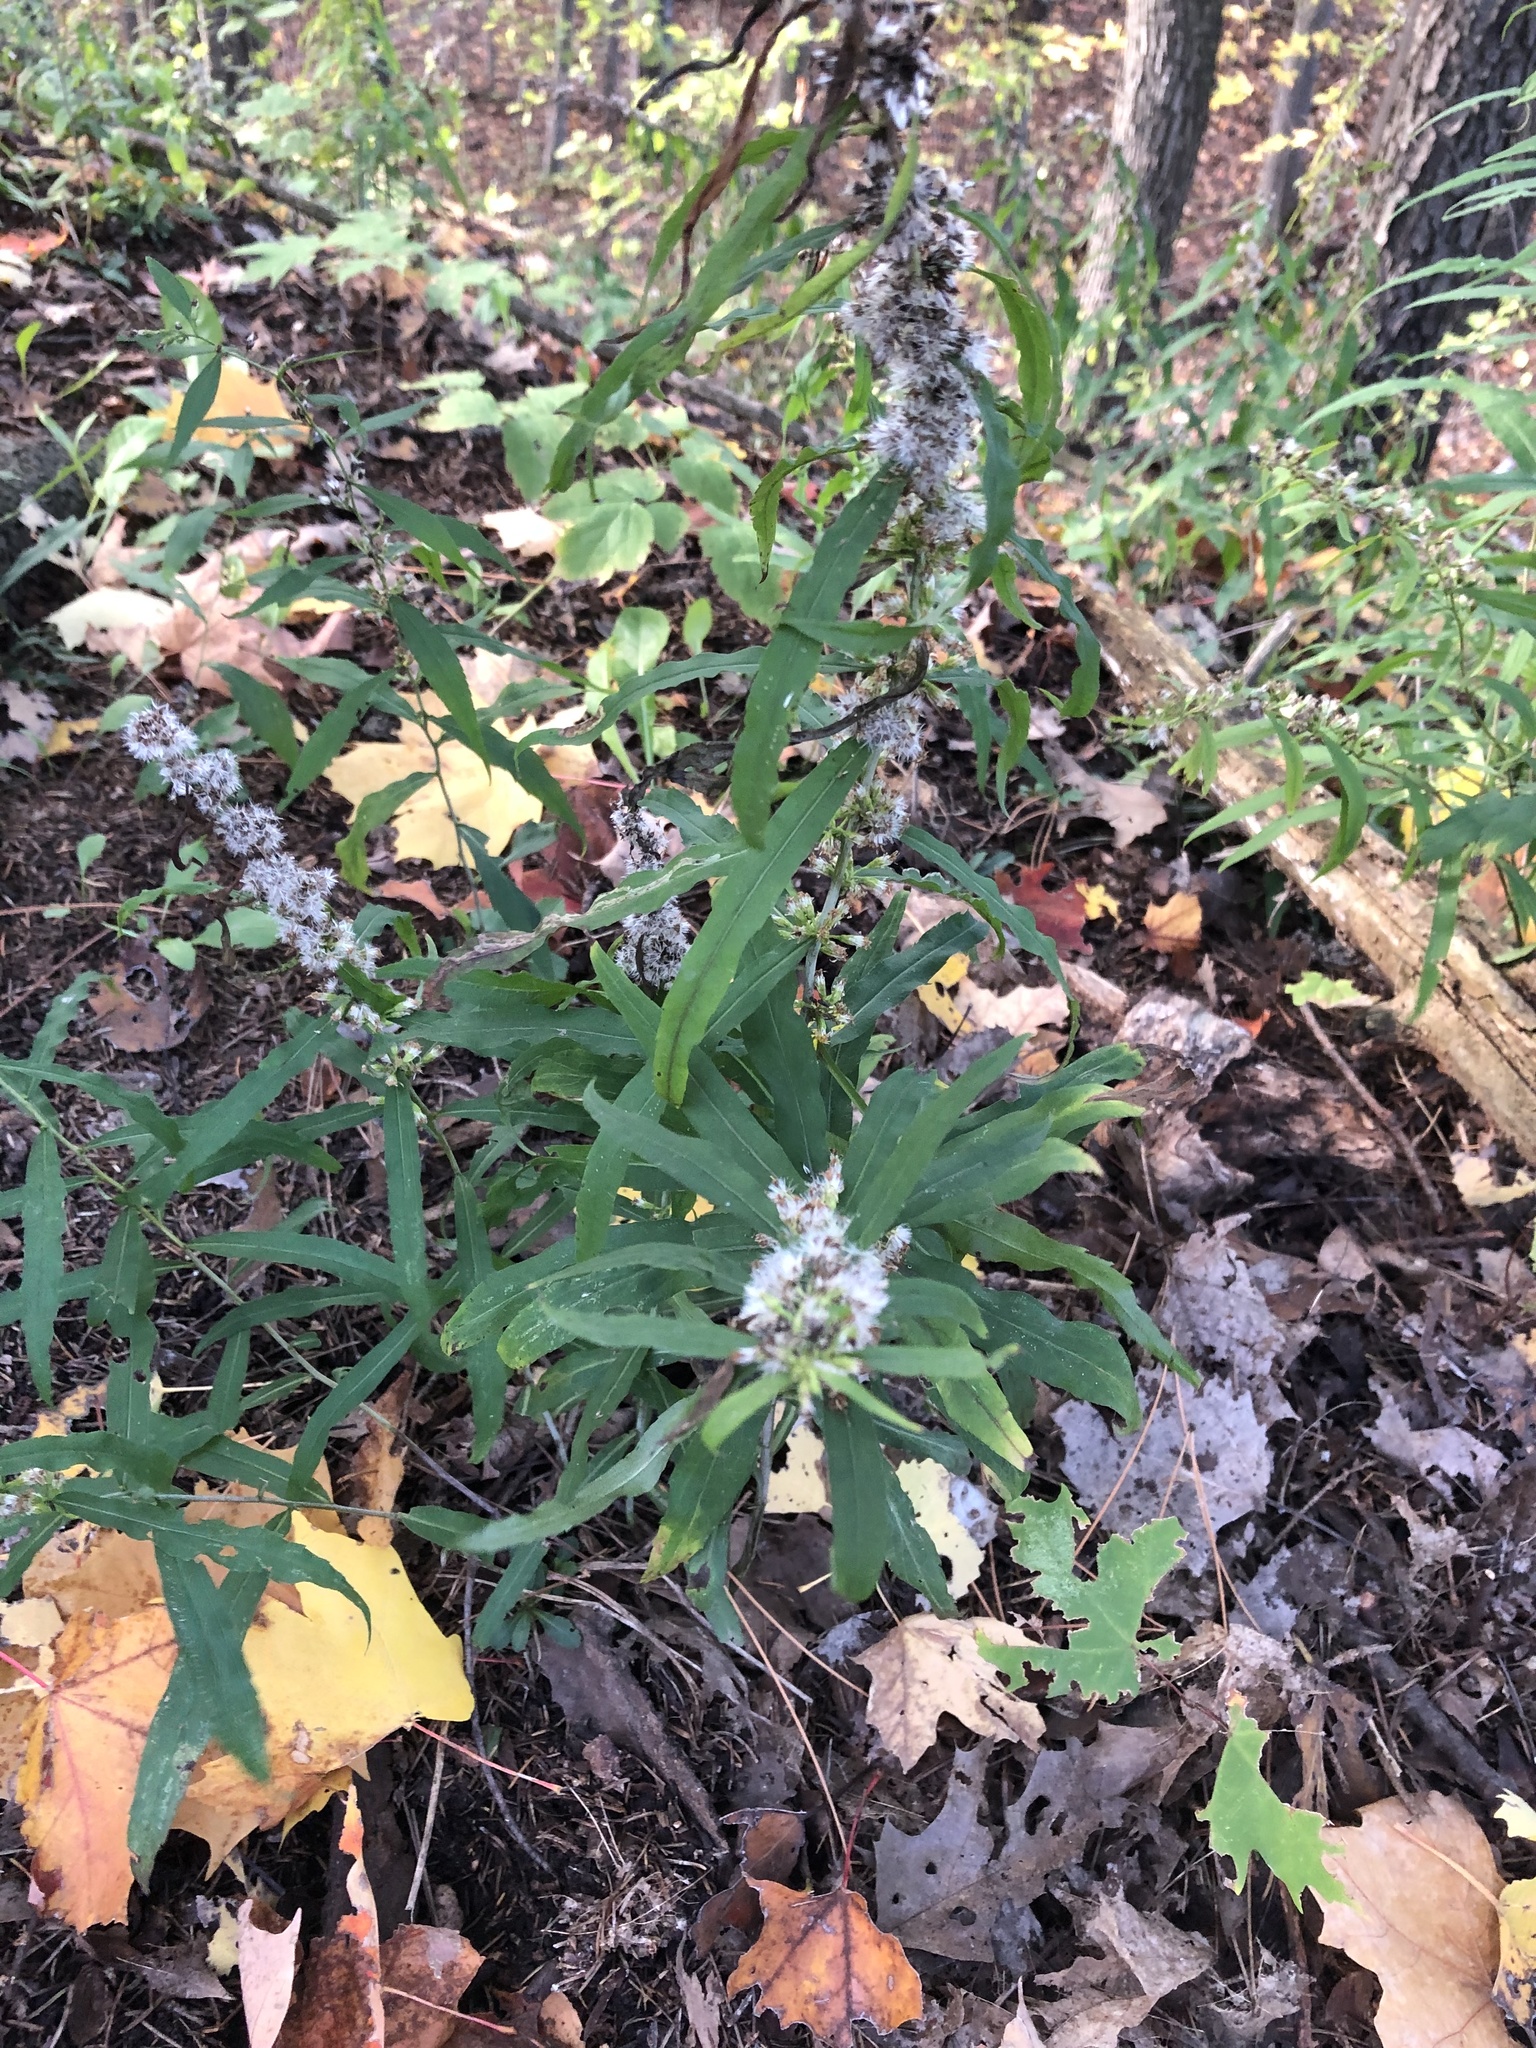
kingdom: Plantae
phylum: Tracheophyta
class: Magnoliopsida
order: Asterales
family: Asteraceae
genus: Solidago
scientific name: Solidago caesia
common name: Woodland goldenrod
